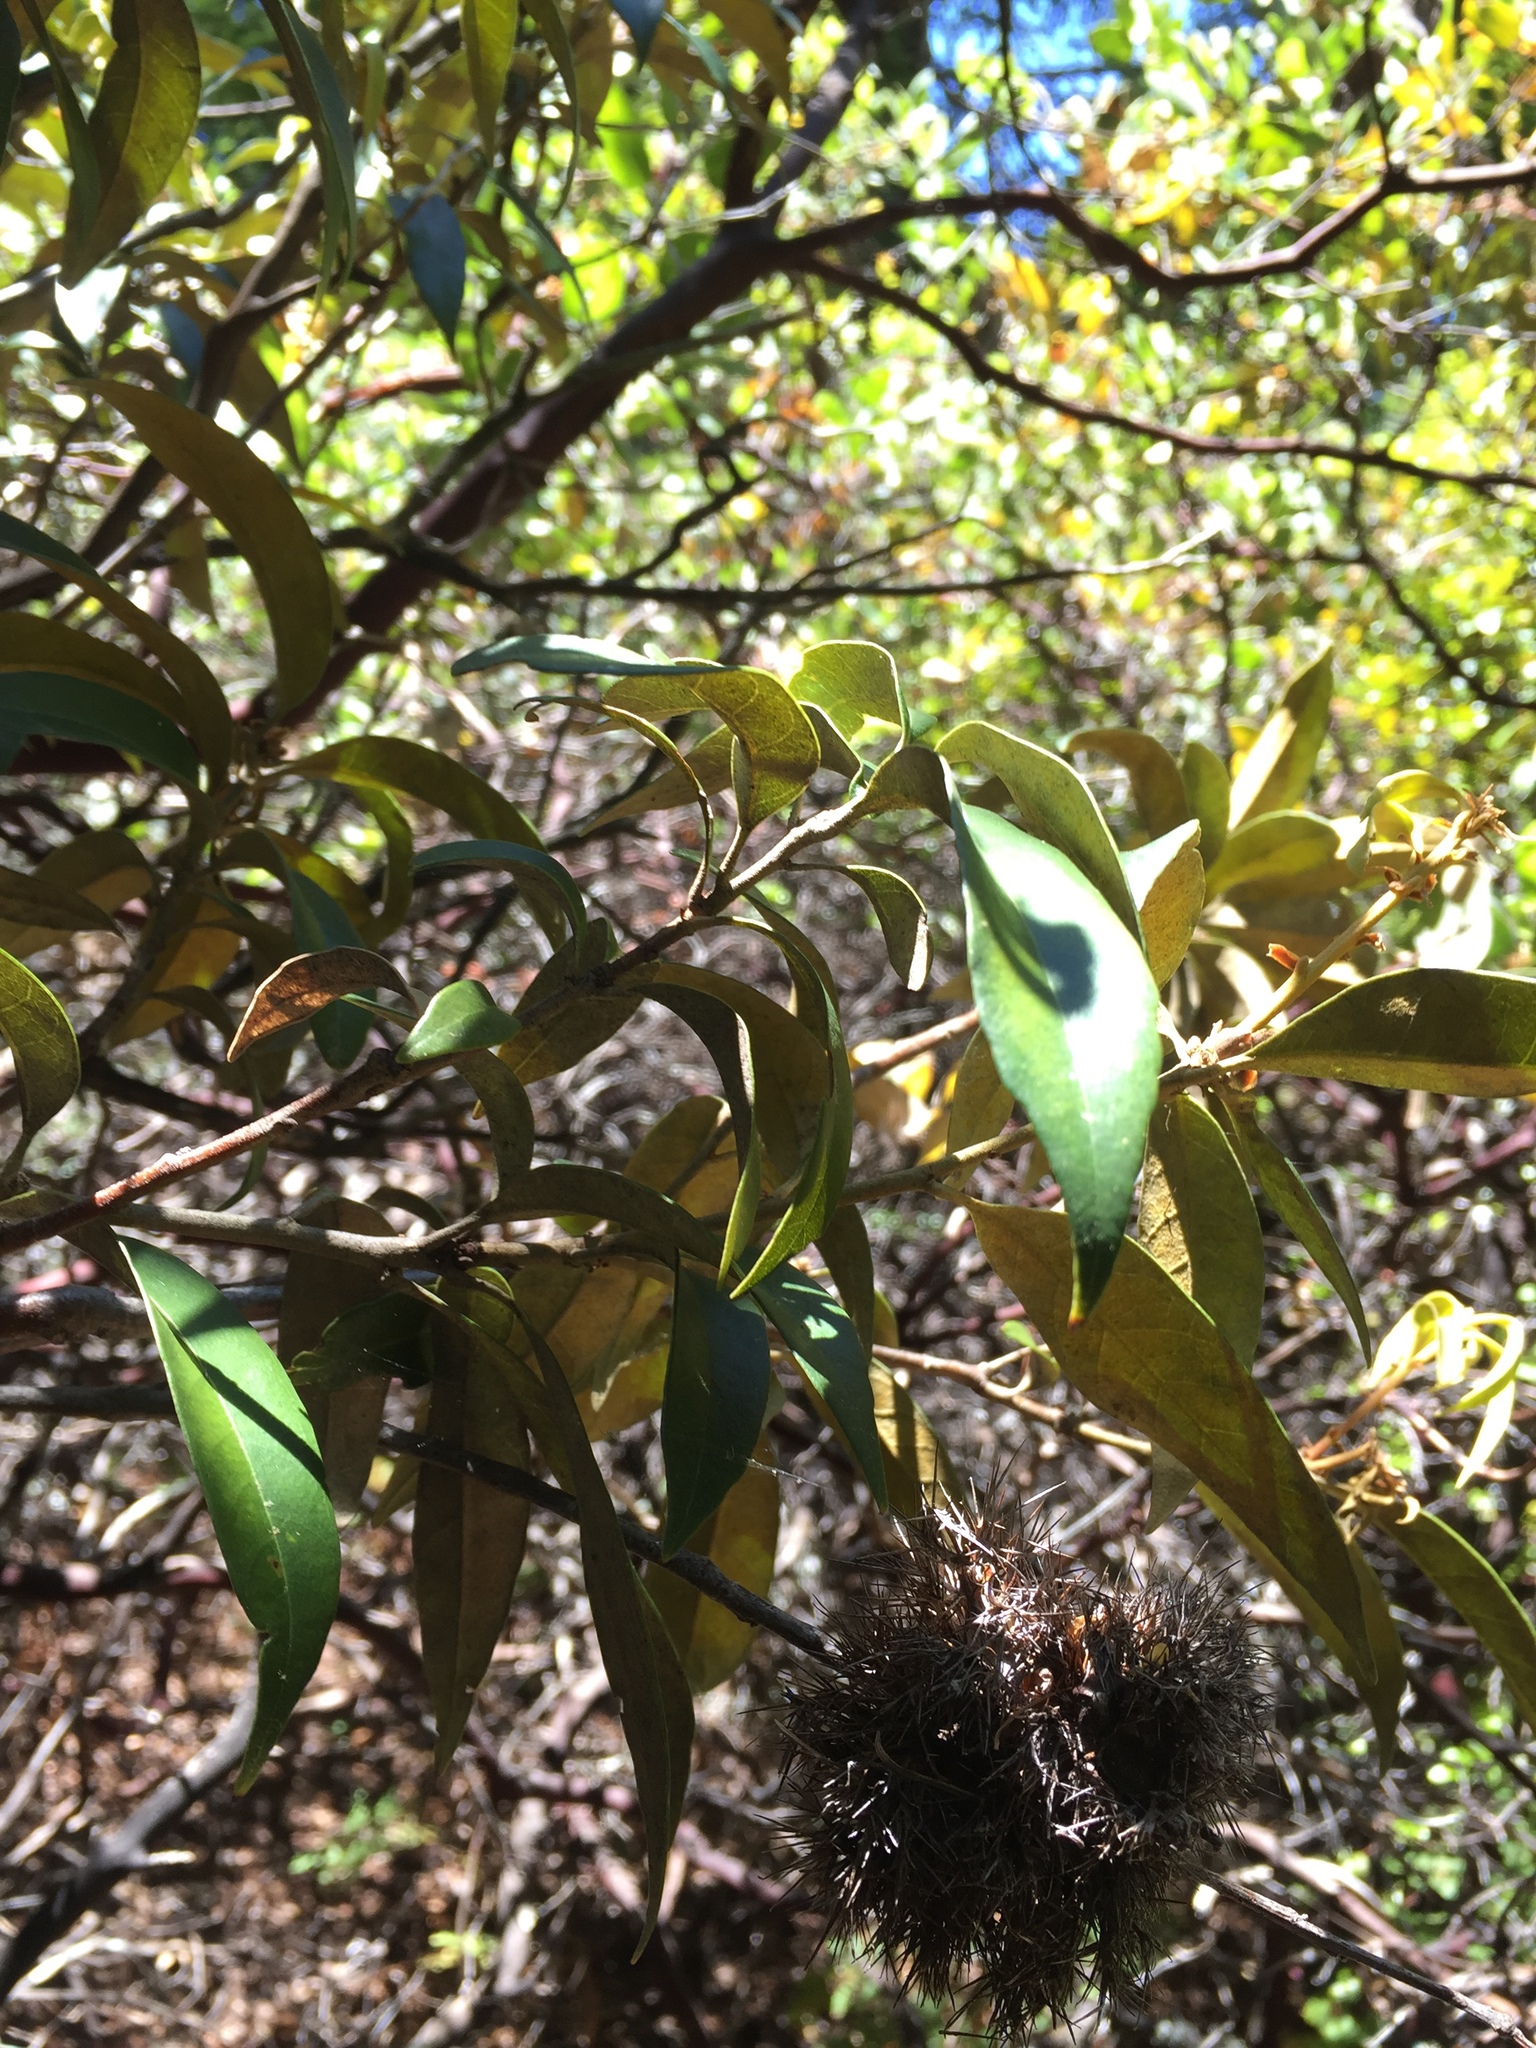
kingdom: Plantae
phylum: Tracheophyta
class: Magnoliopsida
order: Fagales
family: Fagaceae
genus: Chrysolepis
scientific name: Chrysolepis chrysophylla
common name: Giant chinquapin
